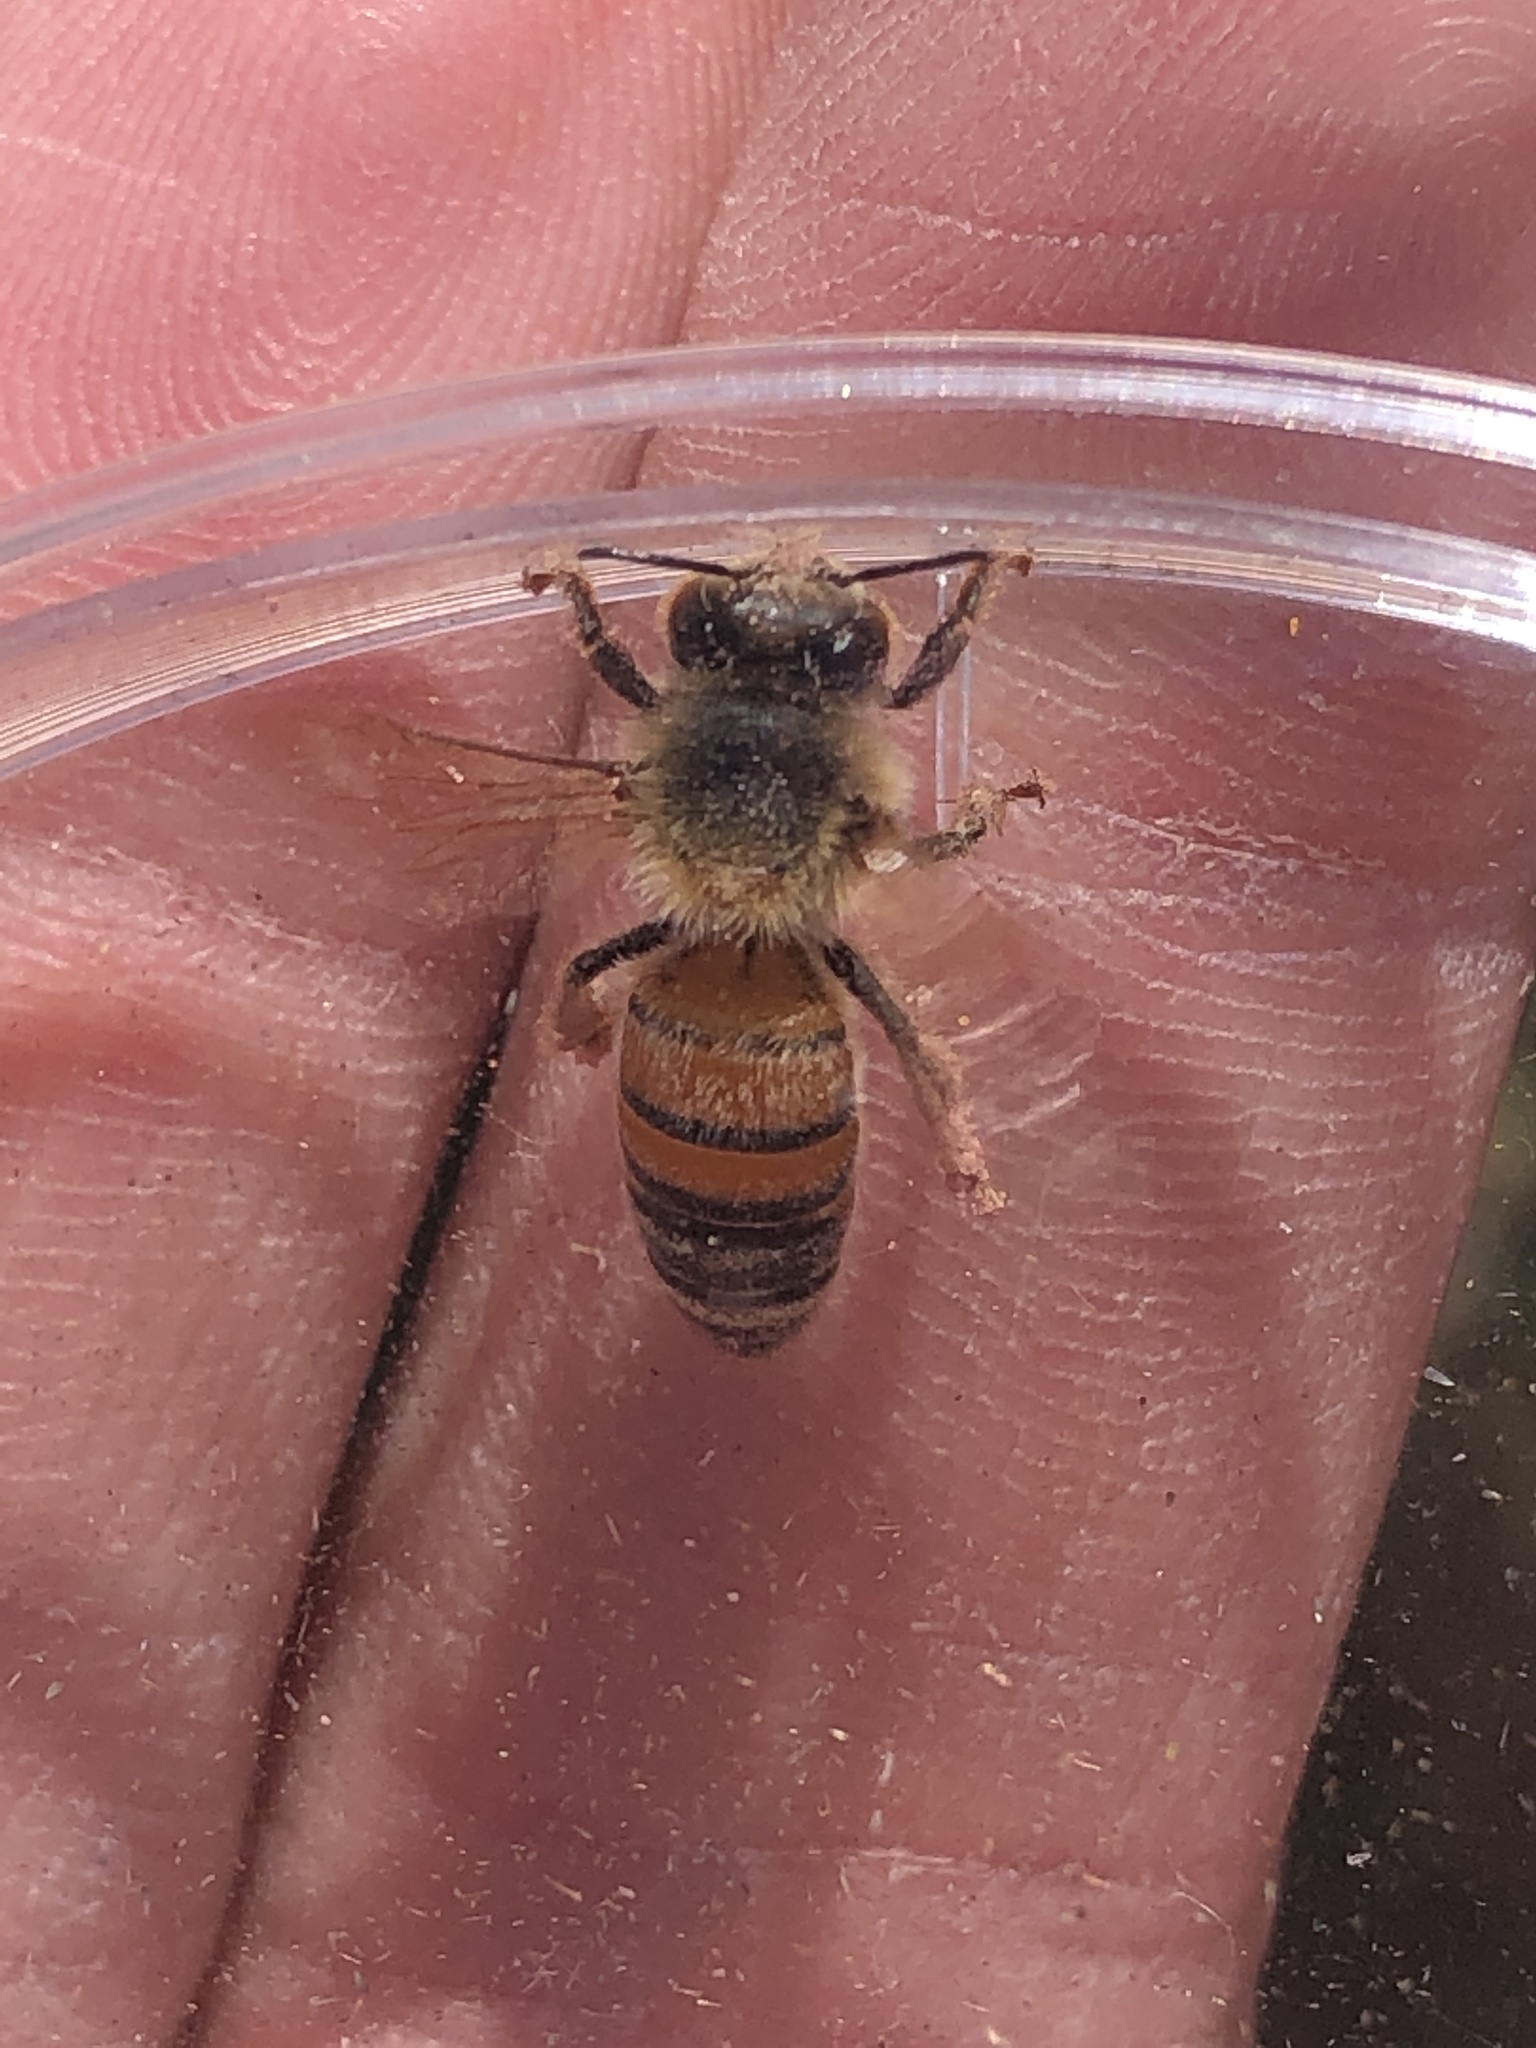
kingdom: Animalia
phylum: Arthropoda
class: Insecta
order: Hymenoptera
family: Apidae
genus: Apis
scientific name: Apis mellifera
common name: Honey bee
